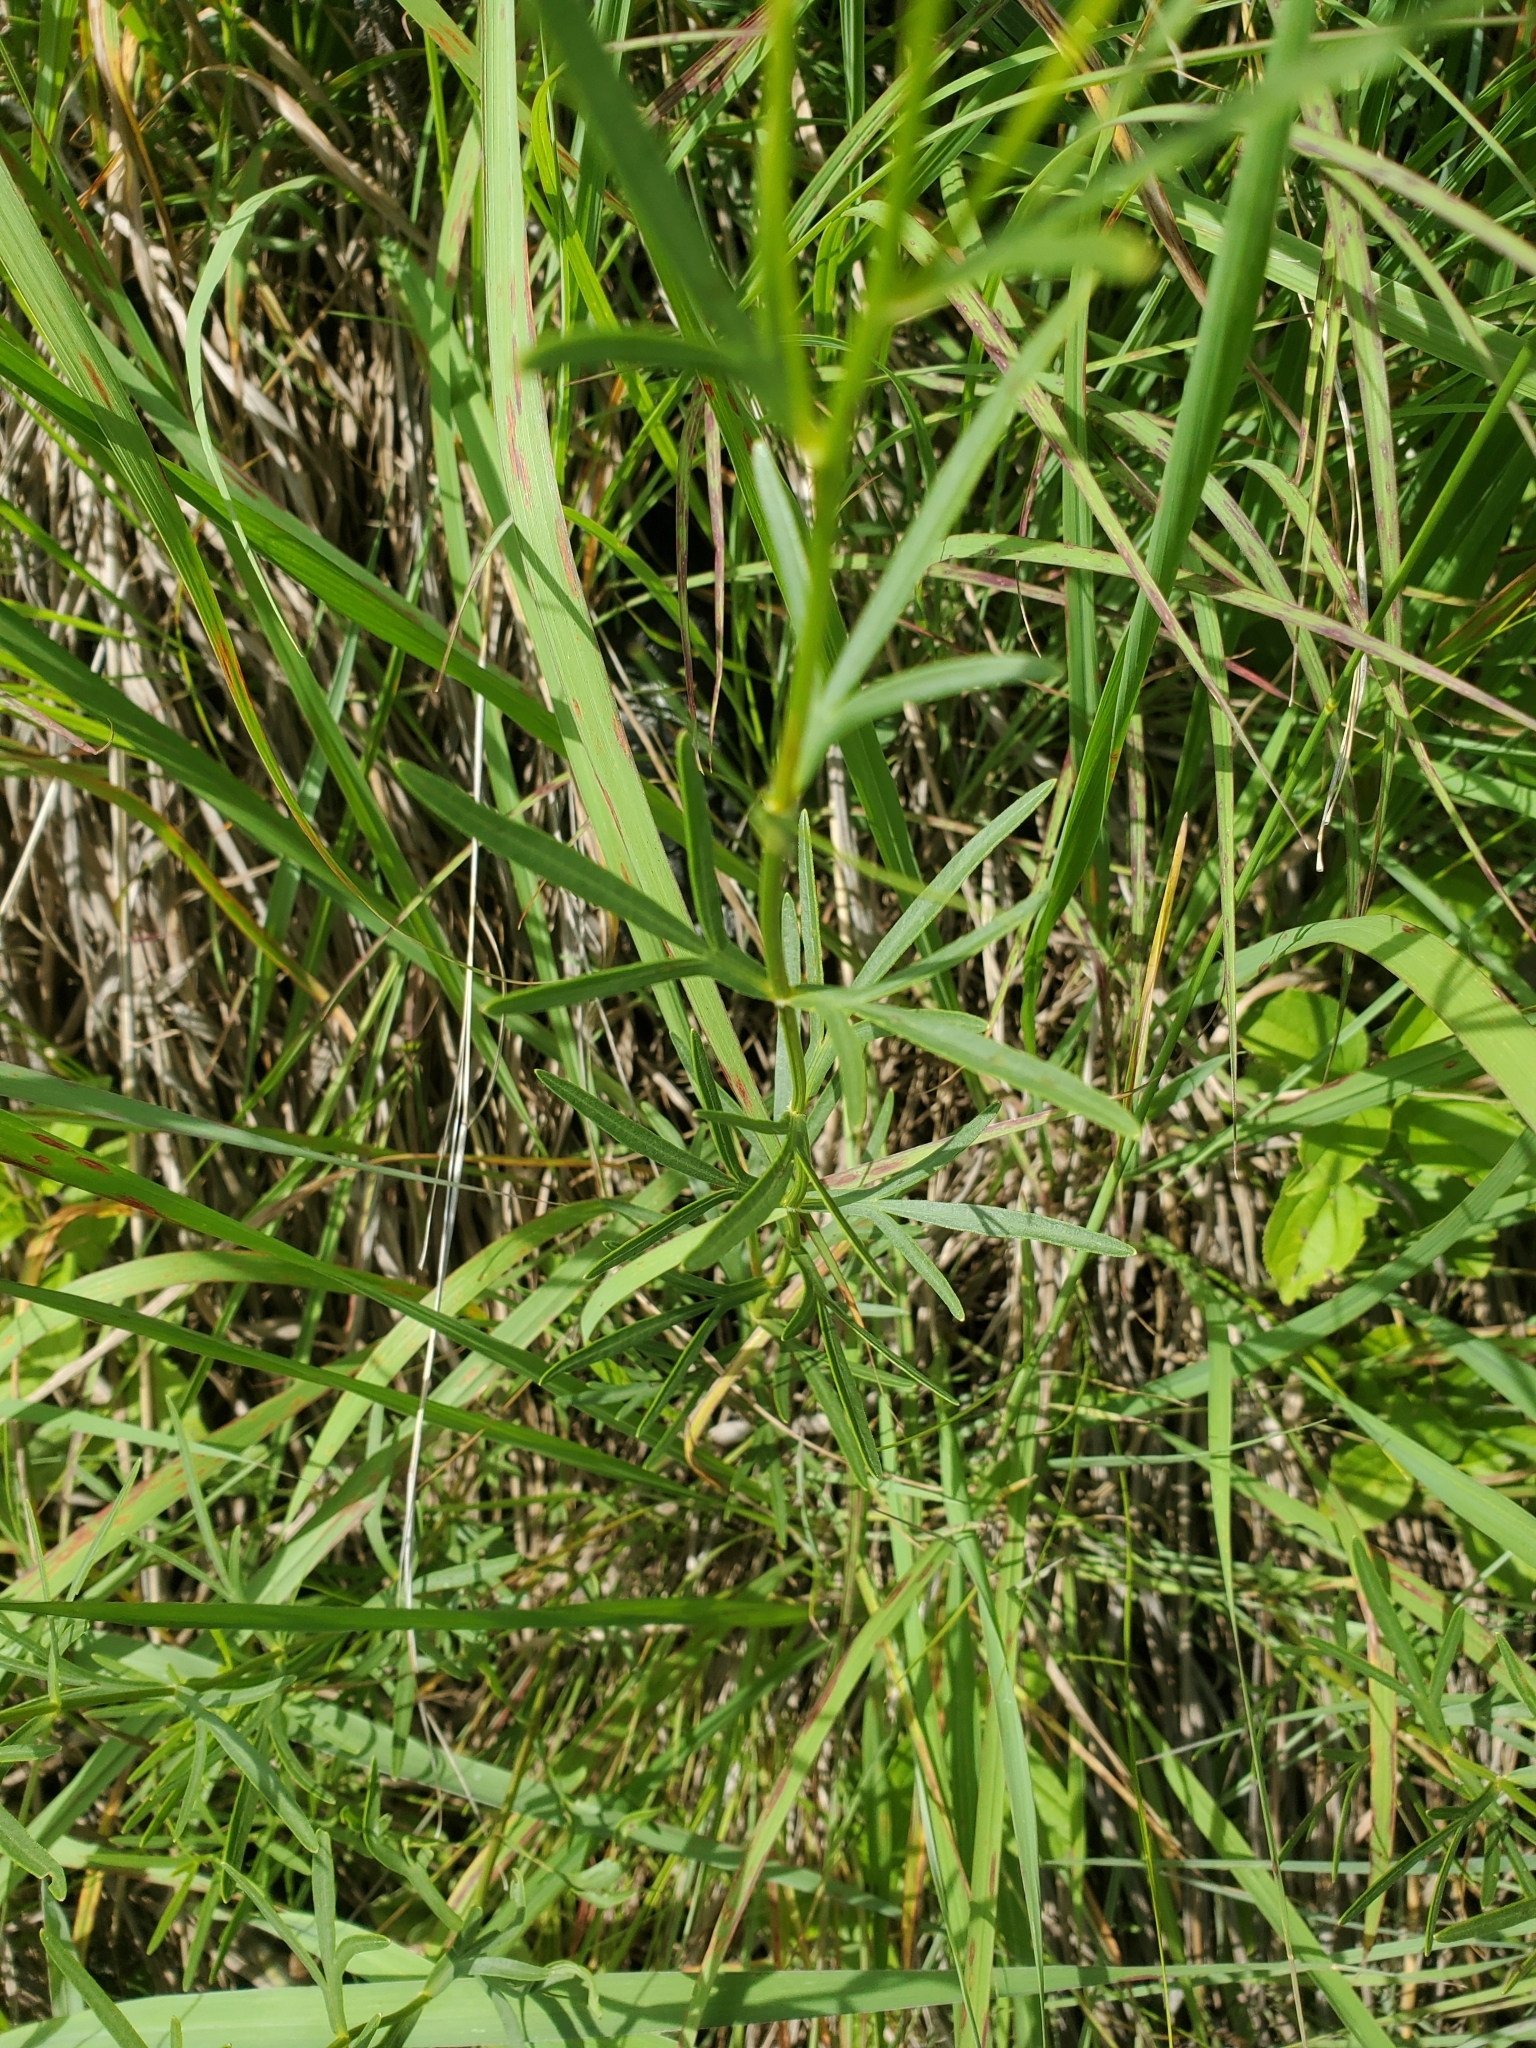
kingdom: Plantae
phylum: Tracheophyta
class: Magnoliopsida
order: Asterales
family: Asteraceae
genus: Coreopsis
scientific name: Coreopsis palmata
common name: Prairie coreopsis
